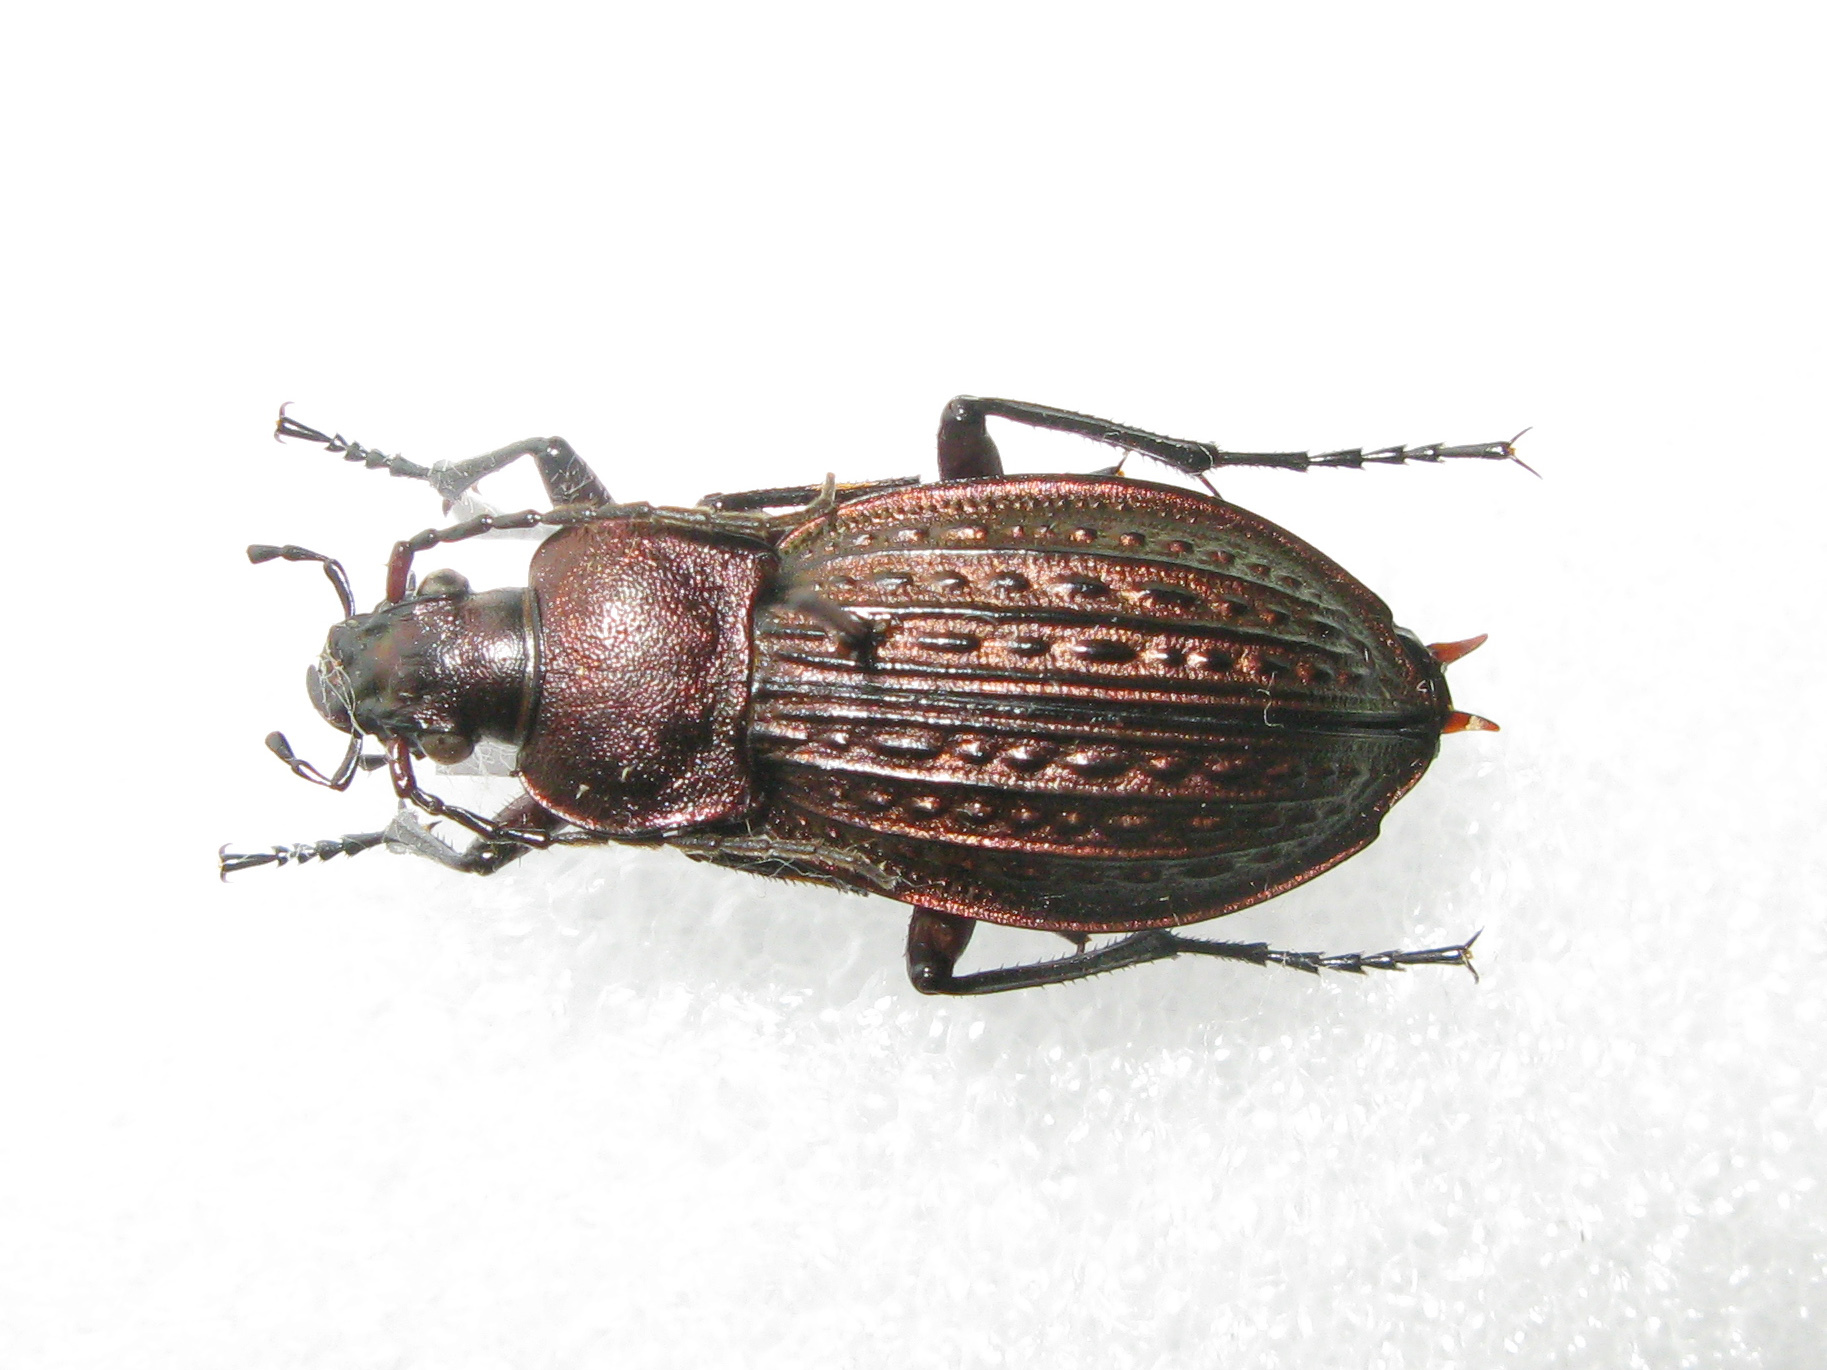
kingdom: Animalia
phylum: Arthropoda
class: Insecta
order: Coleoptera
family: Carabidae
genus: Carabus
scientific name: Carabus cancellatus
